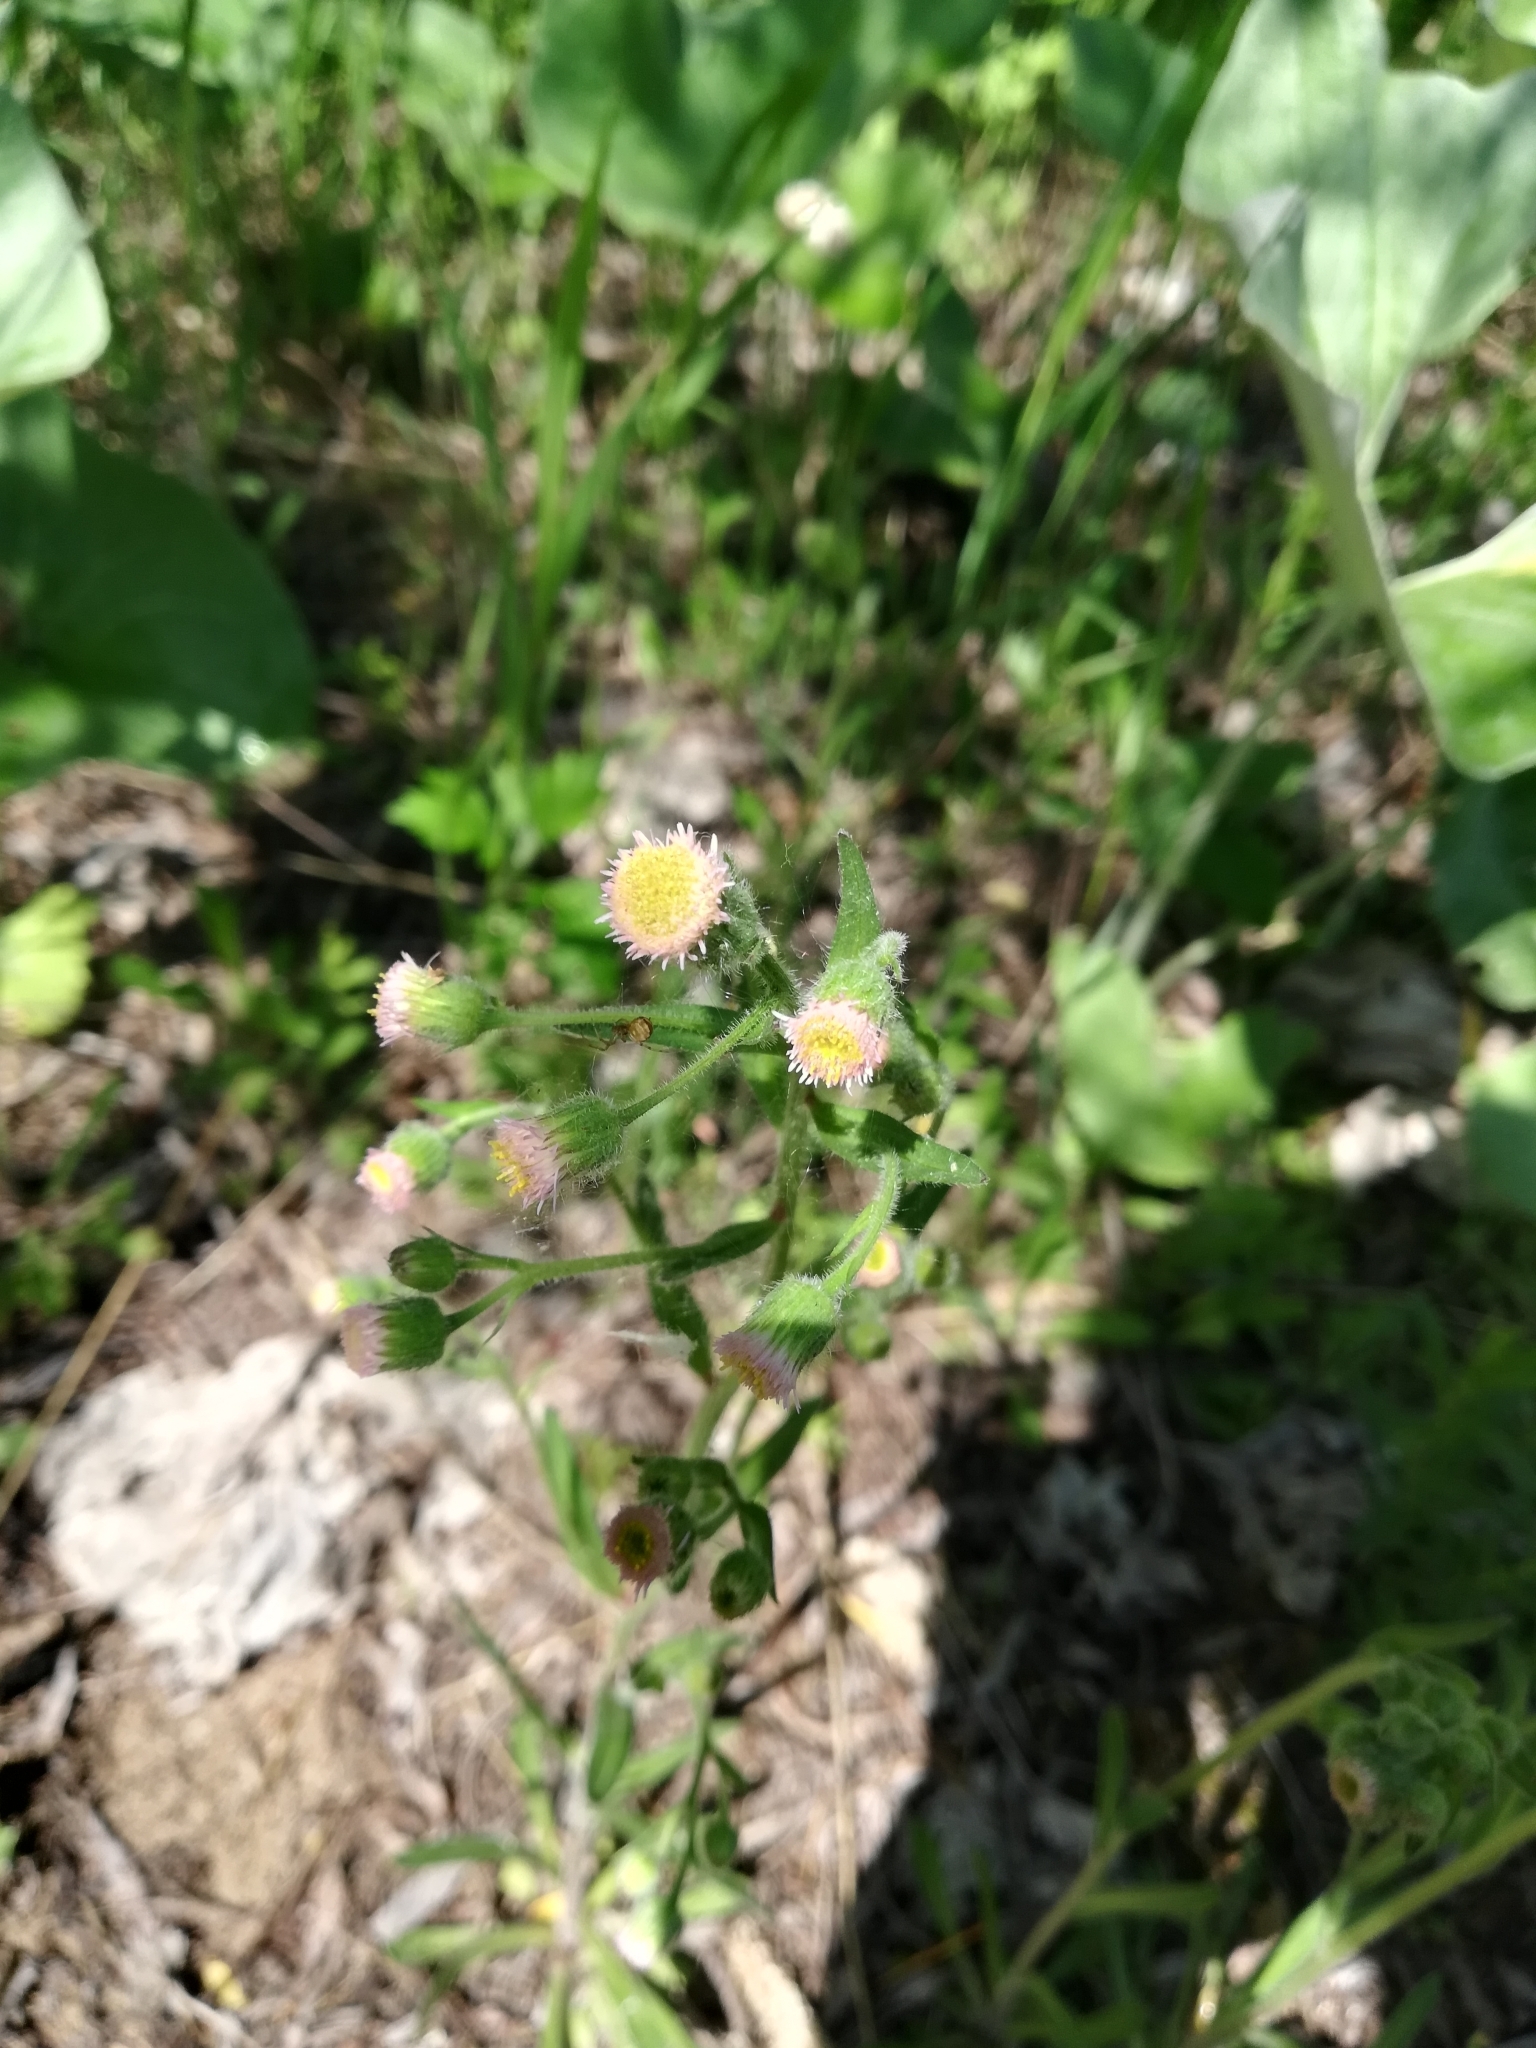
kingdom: Plantae
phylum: Tracheophyta
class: Magnoliopsida
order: Asterales
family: Asteraceae
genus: Erigeron
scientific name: Erigeron acris
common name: Blue fleabane
